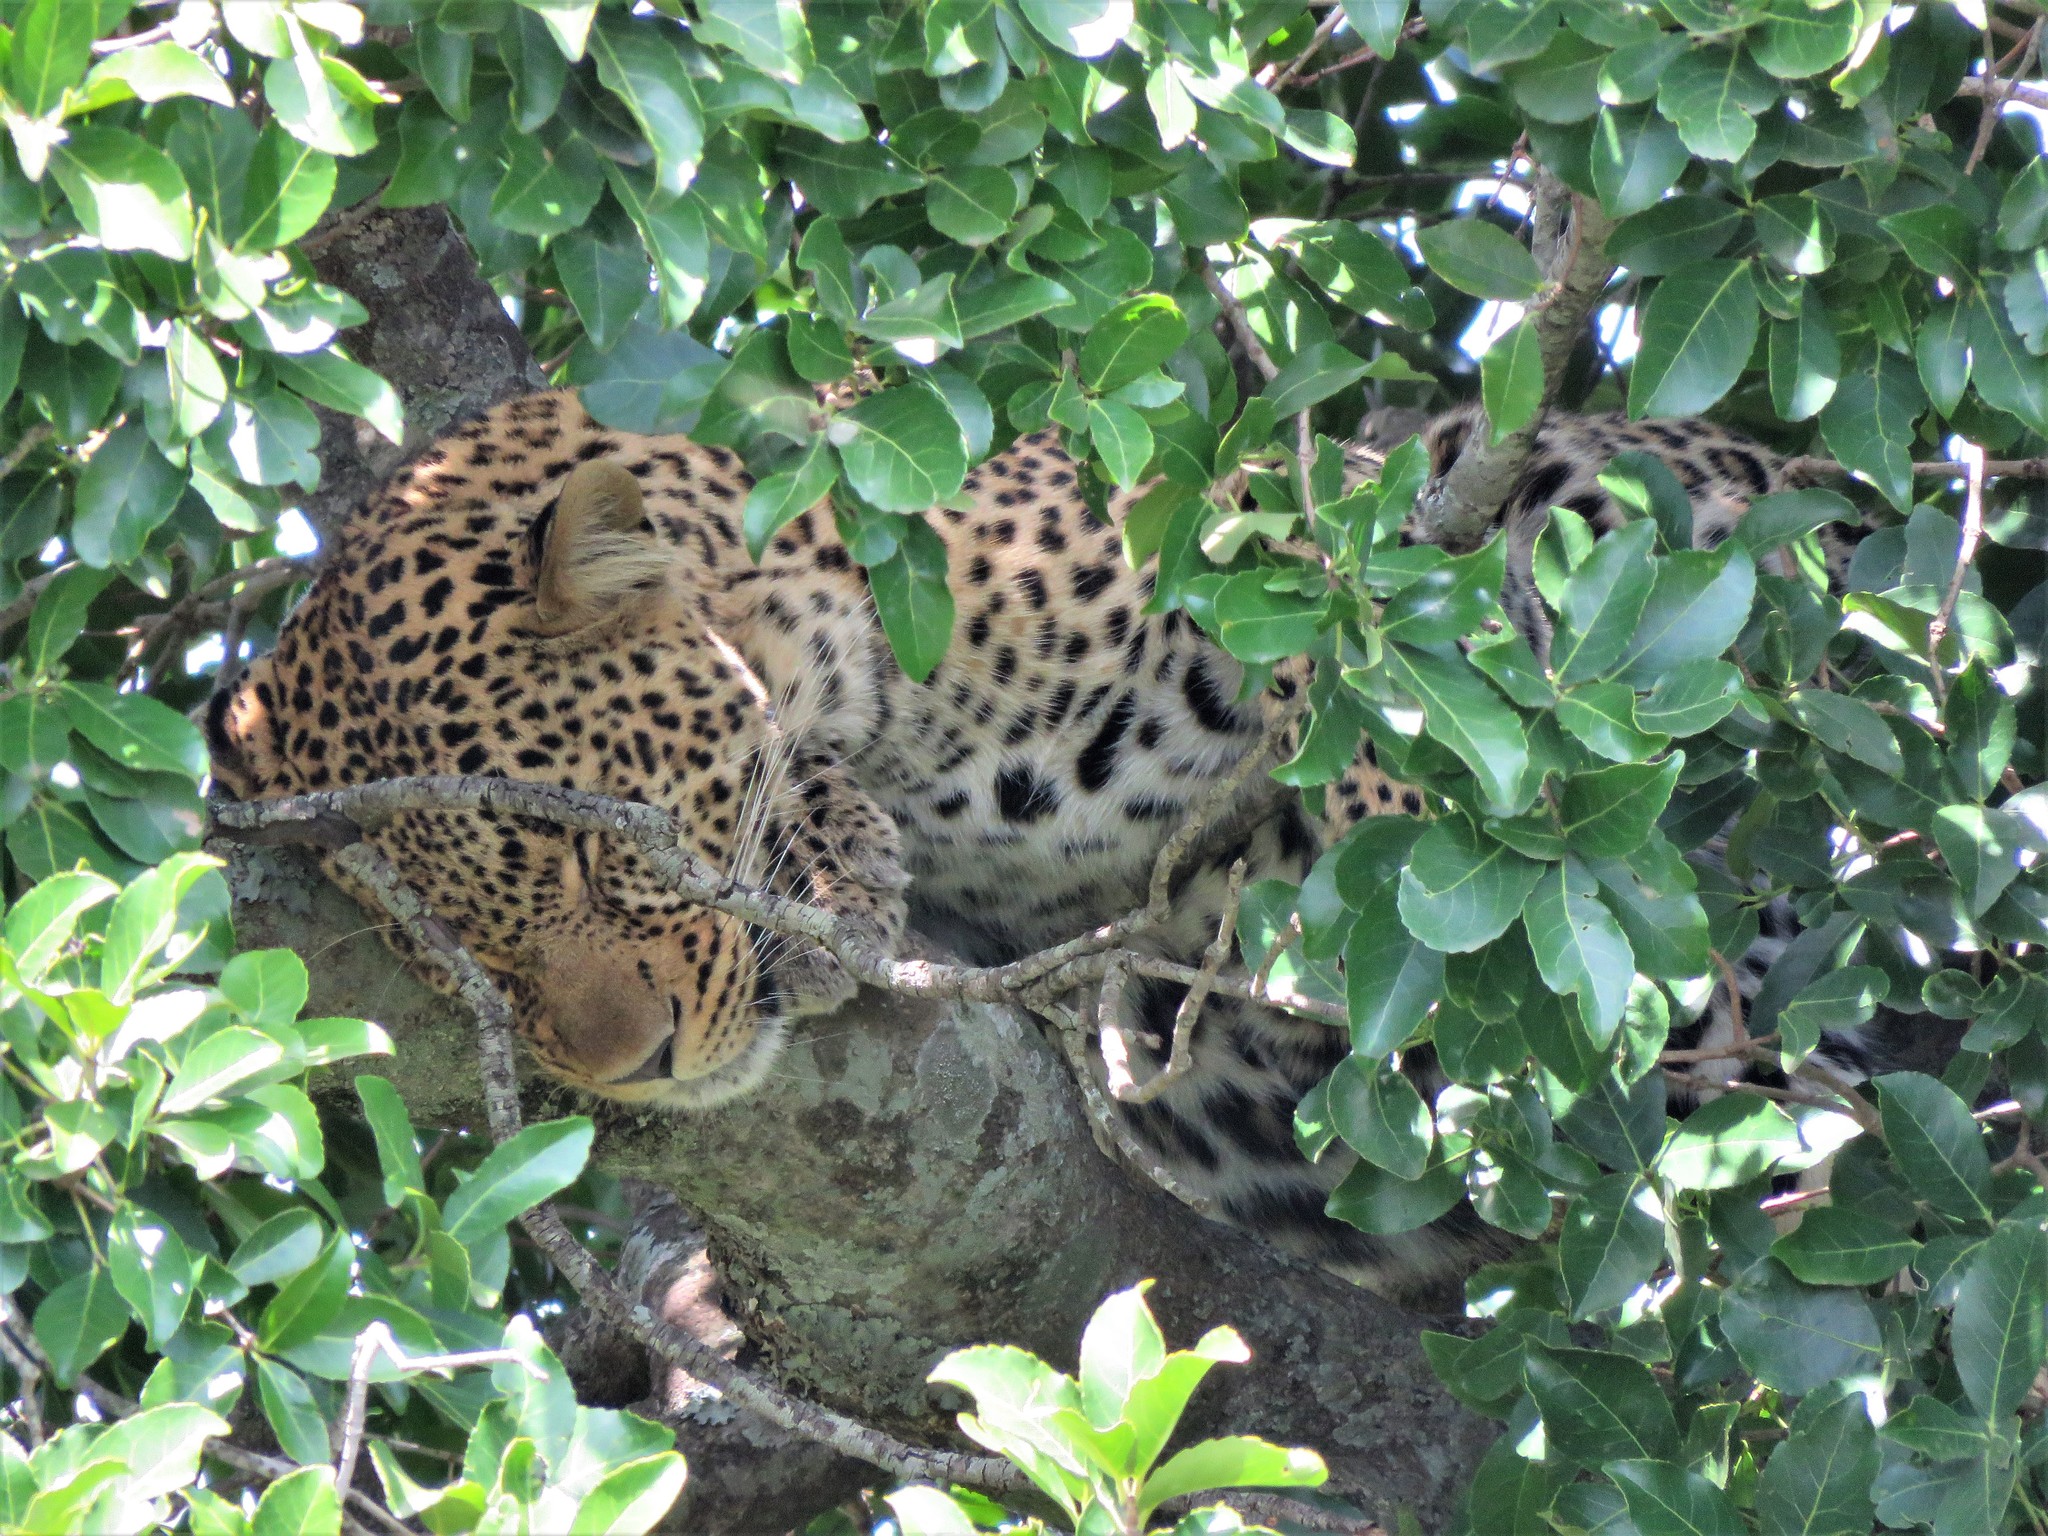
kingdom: Animalia
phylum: Chordata
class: Mammalia
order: Carnivora
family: Felidae
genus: Panthera
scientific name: Panthera pardus
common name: Leopard
